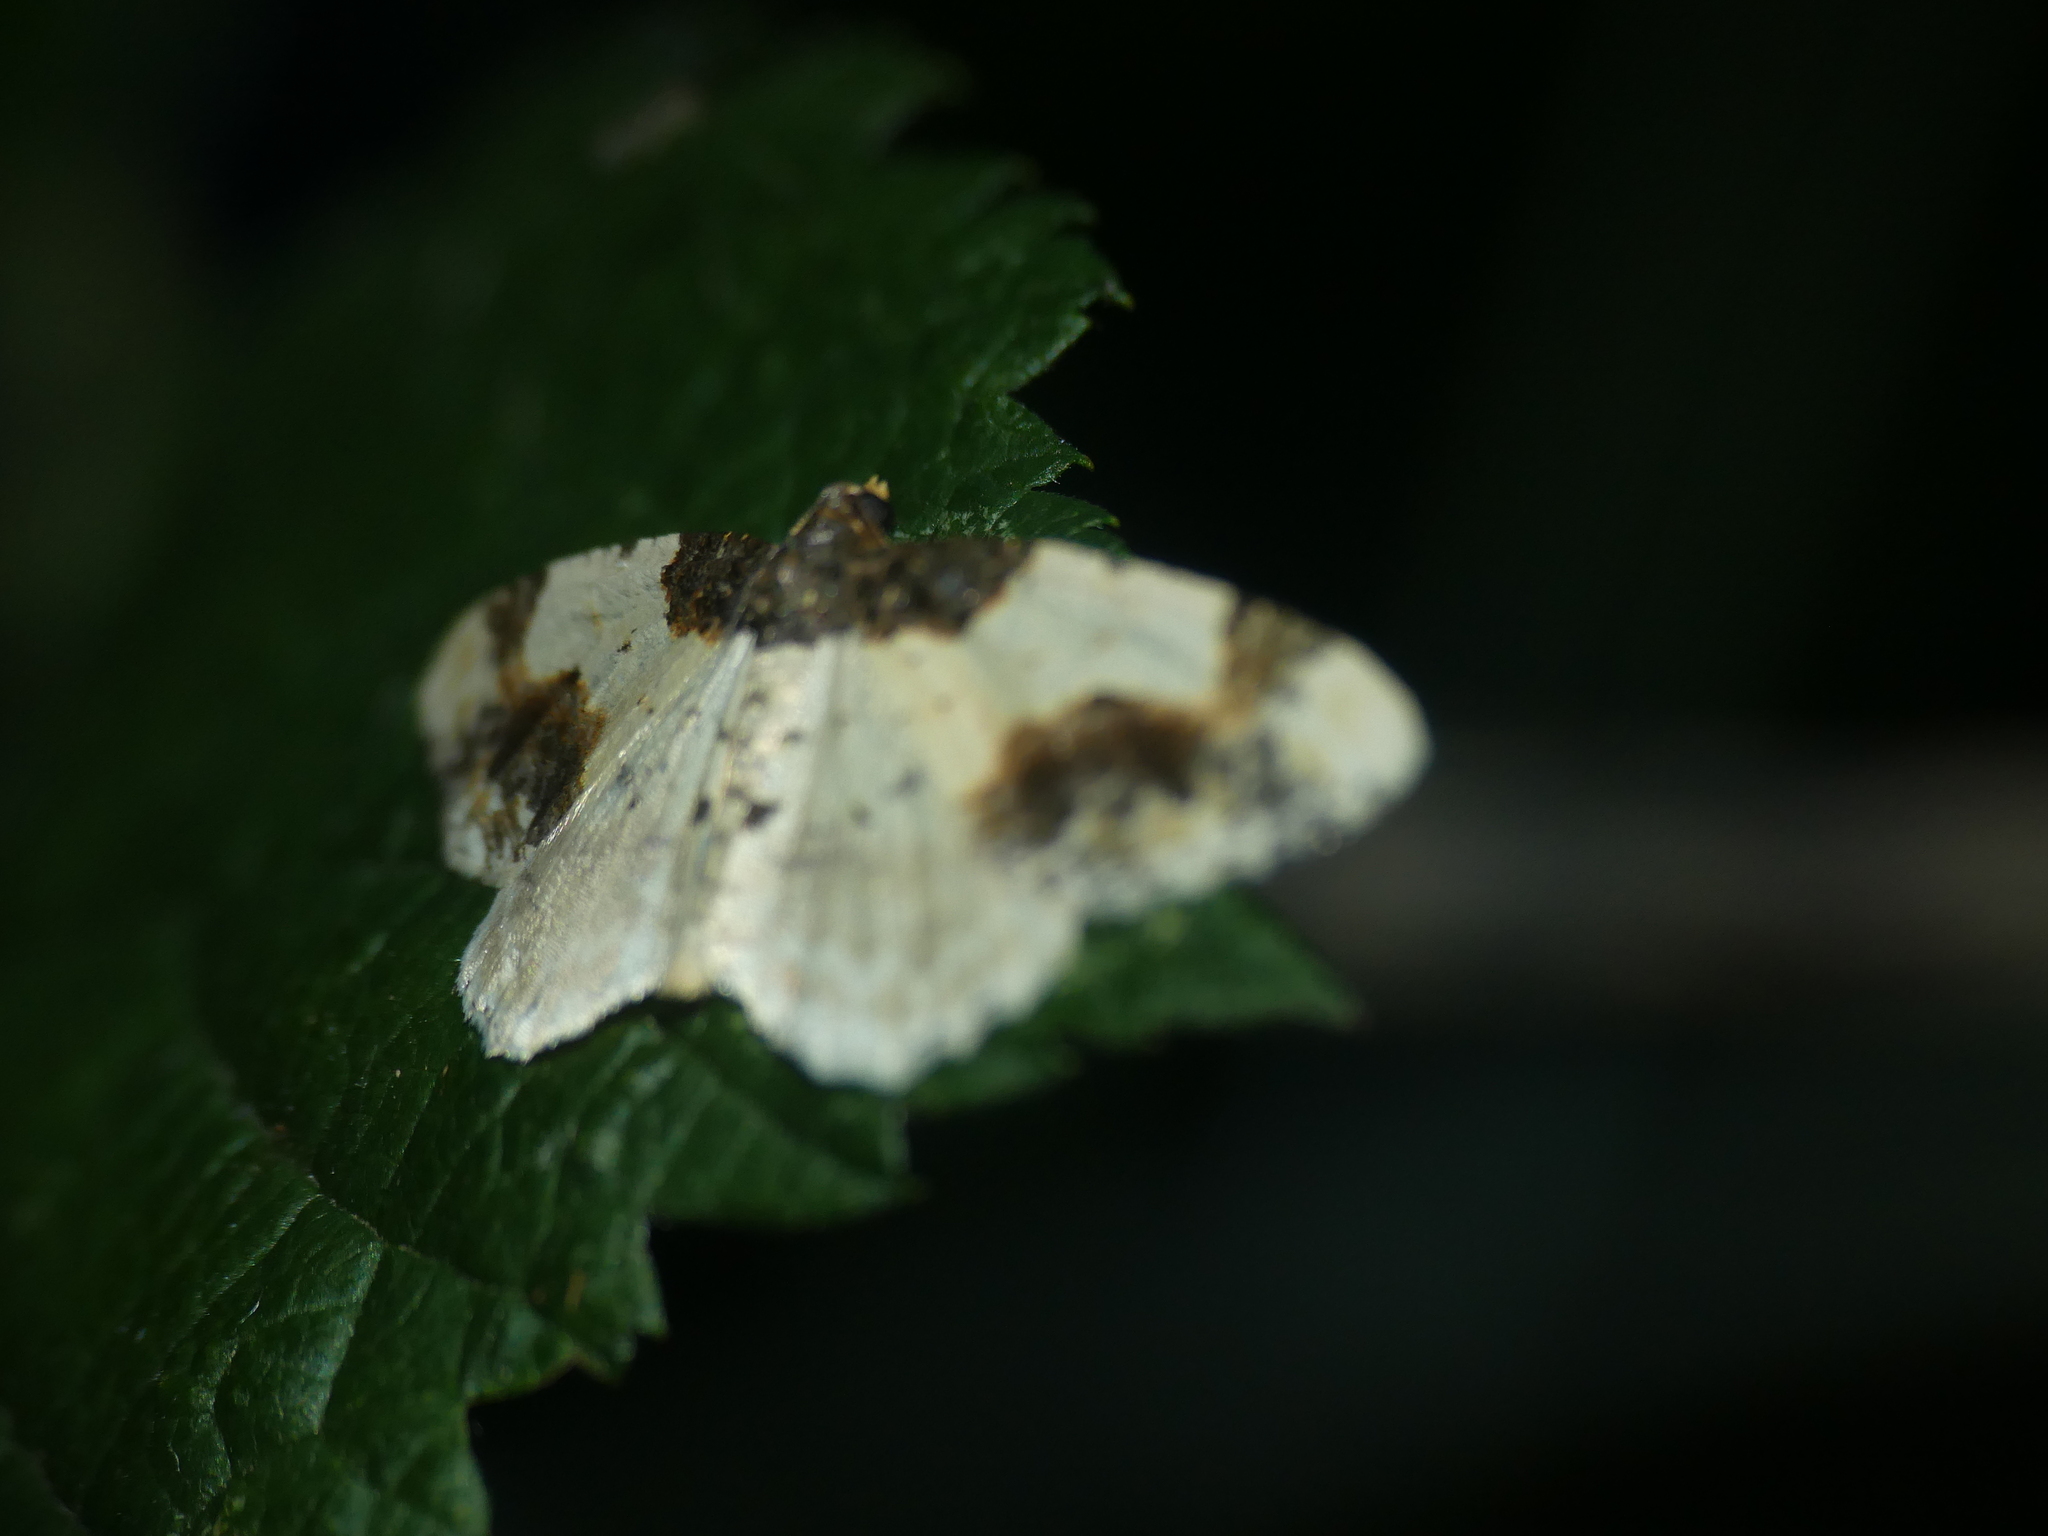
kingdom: Animalia
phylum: Arthropoda
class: Insecta
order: Lepidoptera
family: Geometridae
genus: Ligdia
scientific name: Ligdia adustata
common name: Scorched carpet
